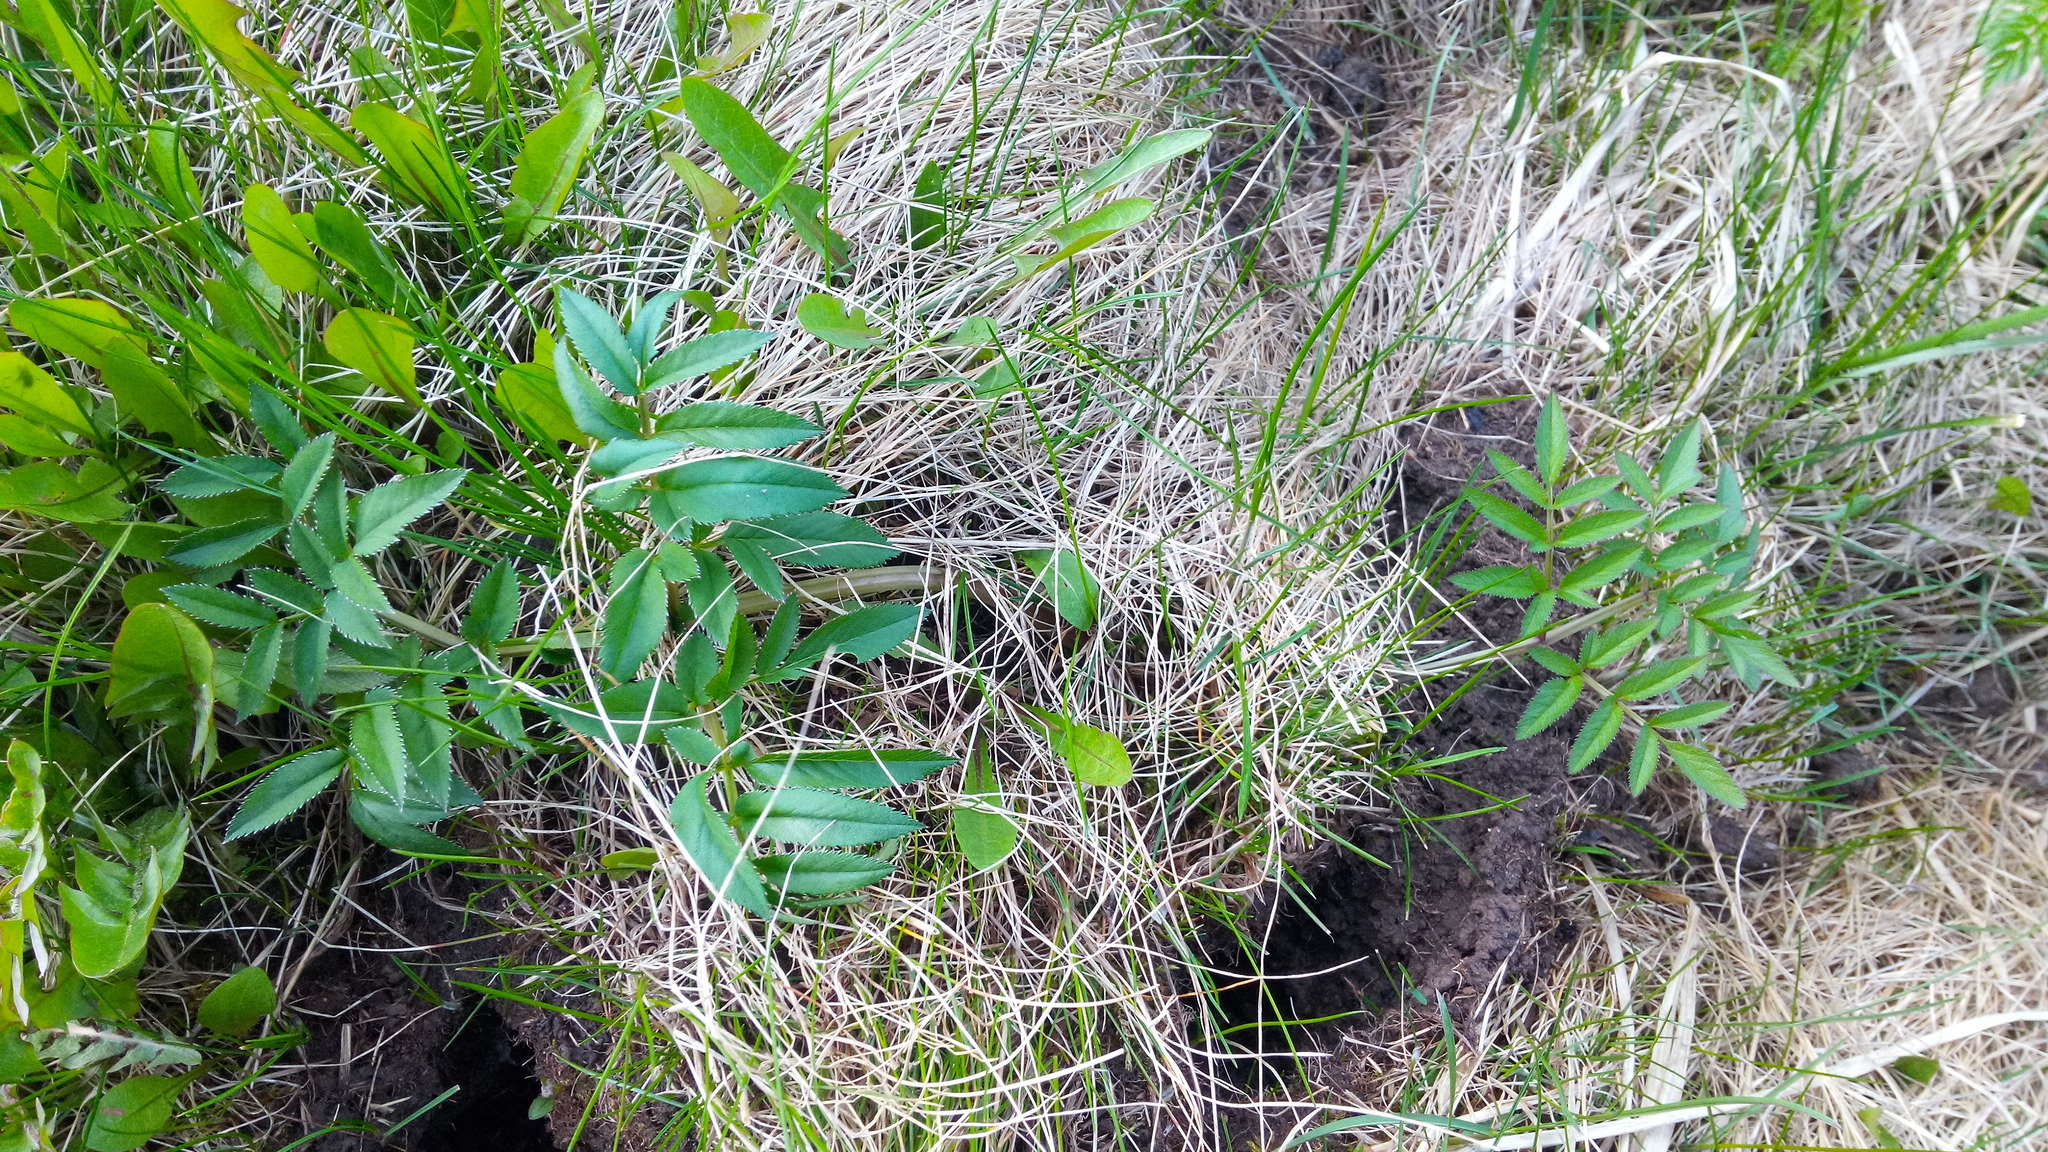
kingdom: Plantae
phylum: Tracheophyta
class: Magnoliopsida
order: Apiales
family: Apiaceae
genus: Angelica
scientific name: Angelica sylvestris
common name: Wild angelica
